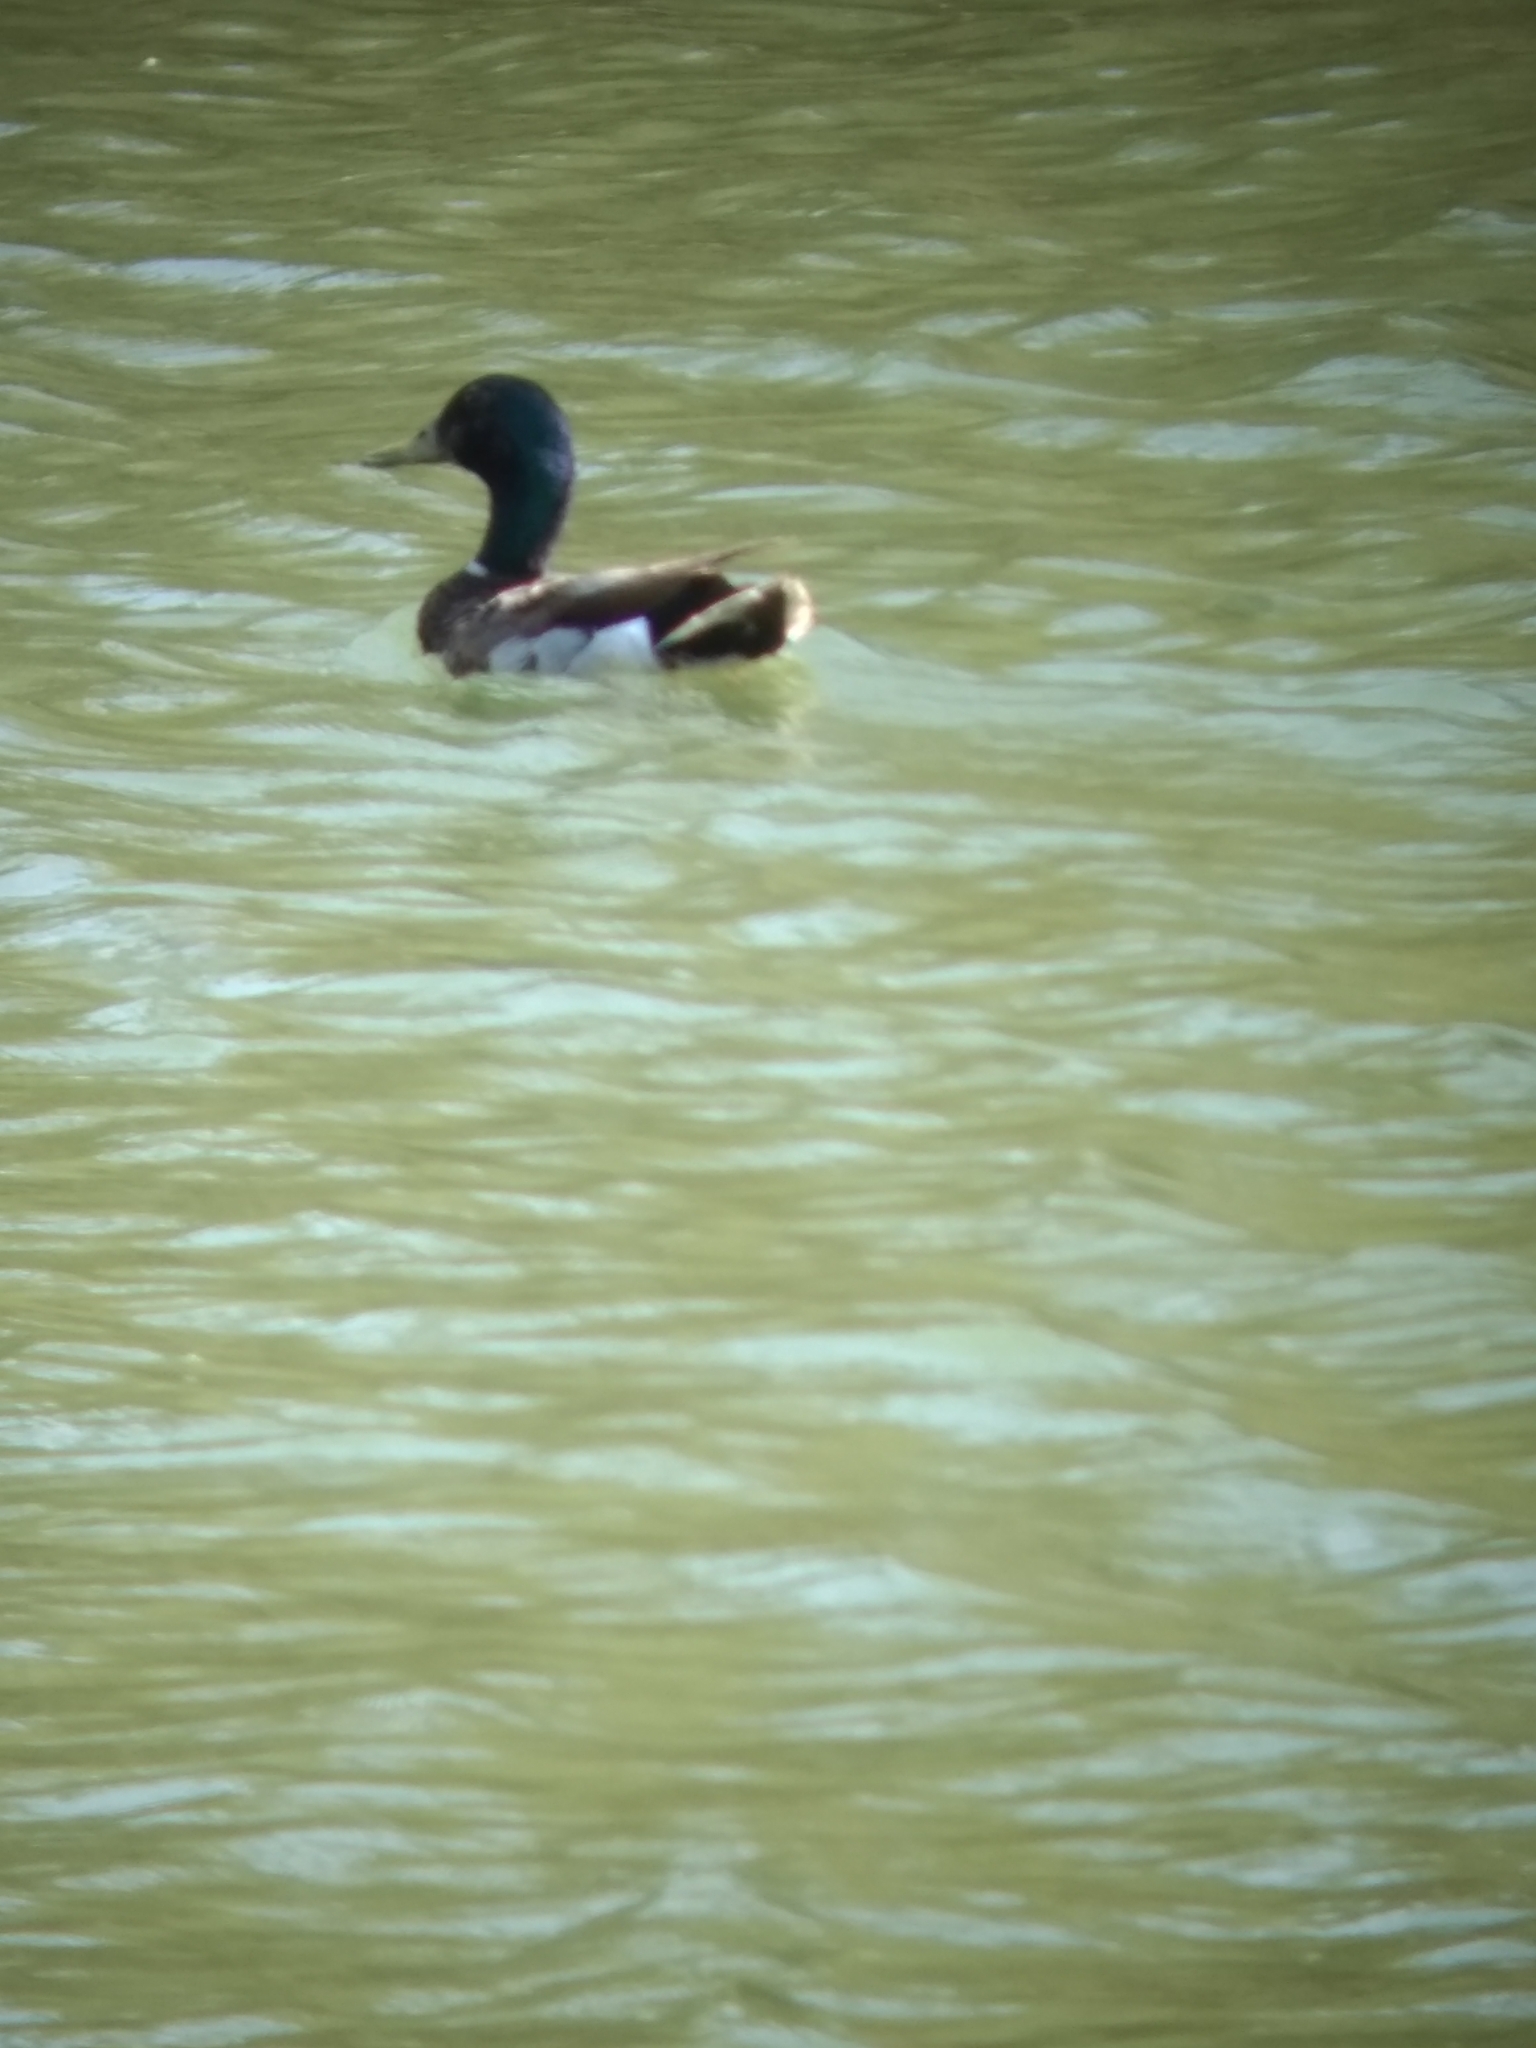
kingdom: Animalia
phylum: Chordata
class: Aves
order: Anseriformes
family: Anatidae
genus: Anas
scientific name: Anas platyrhynchos
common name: Mallard
